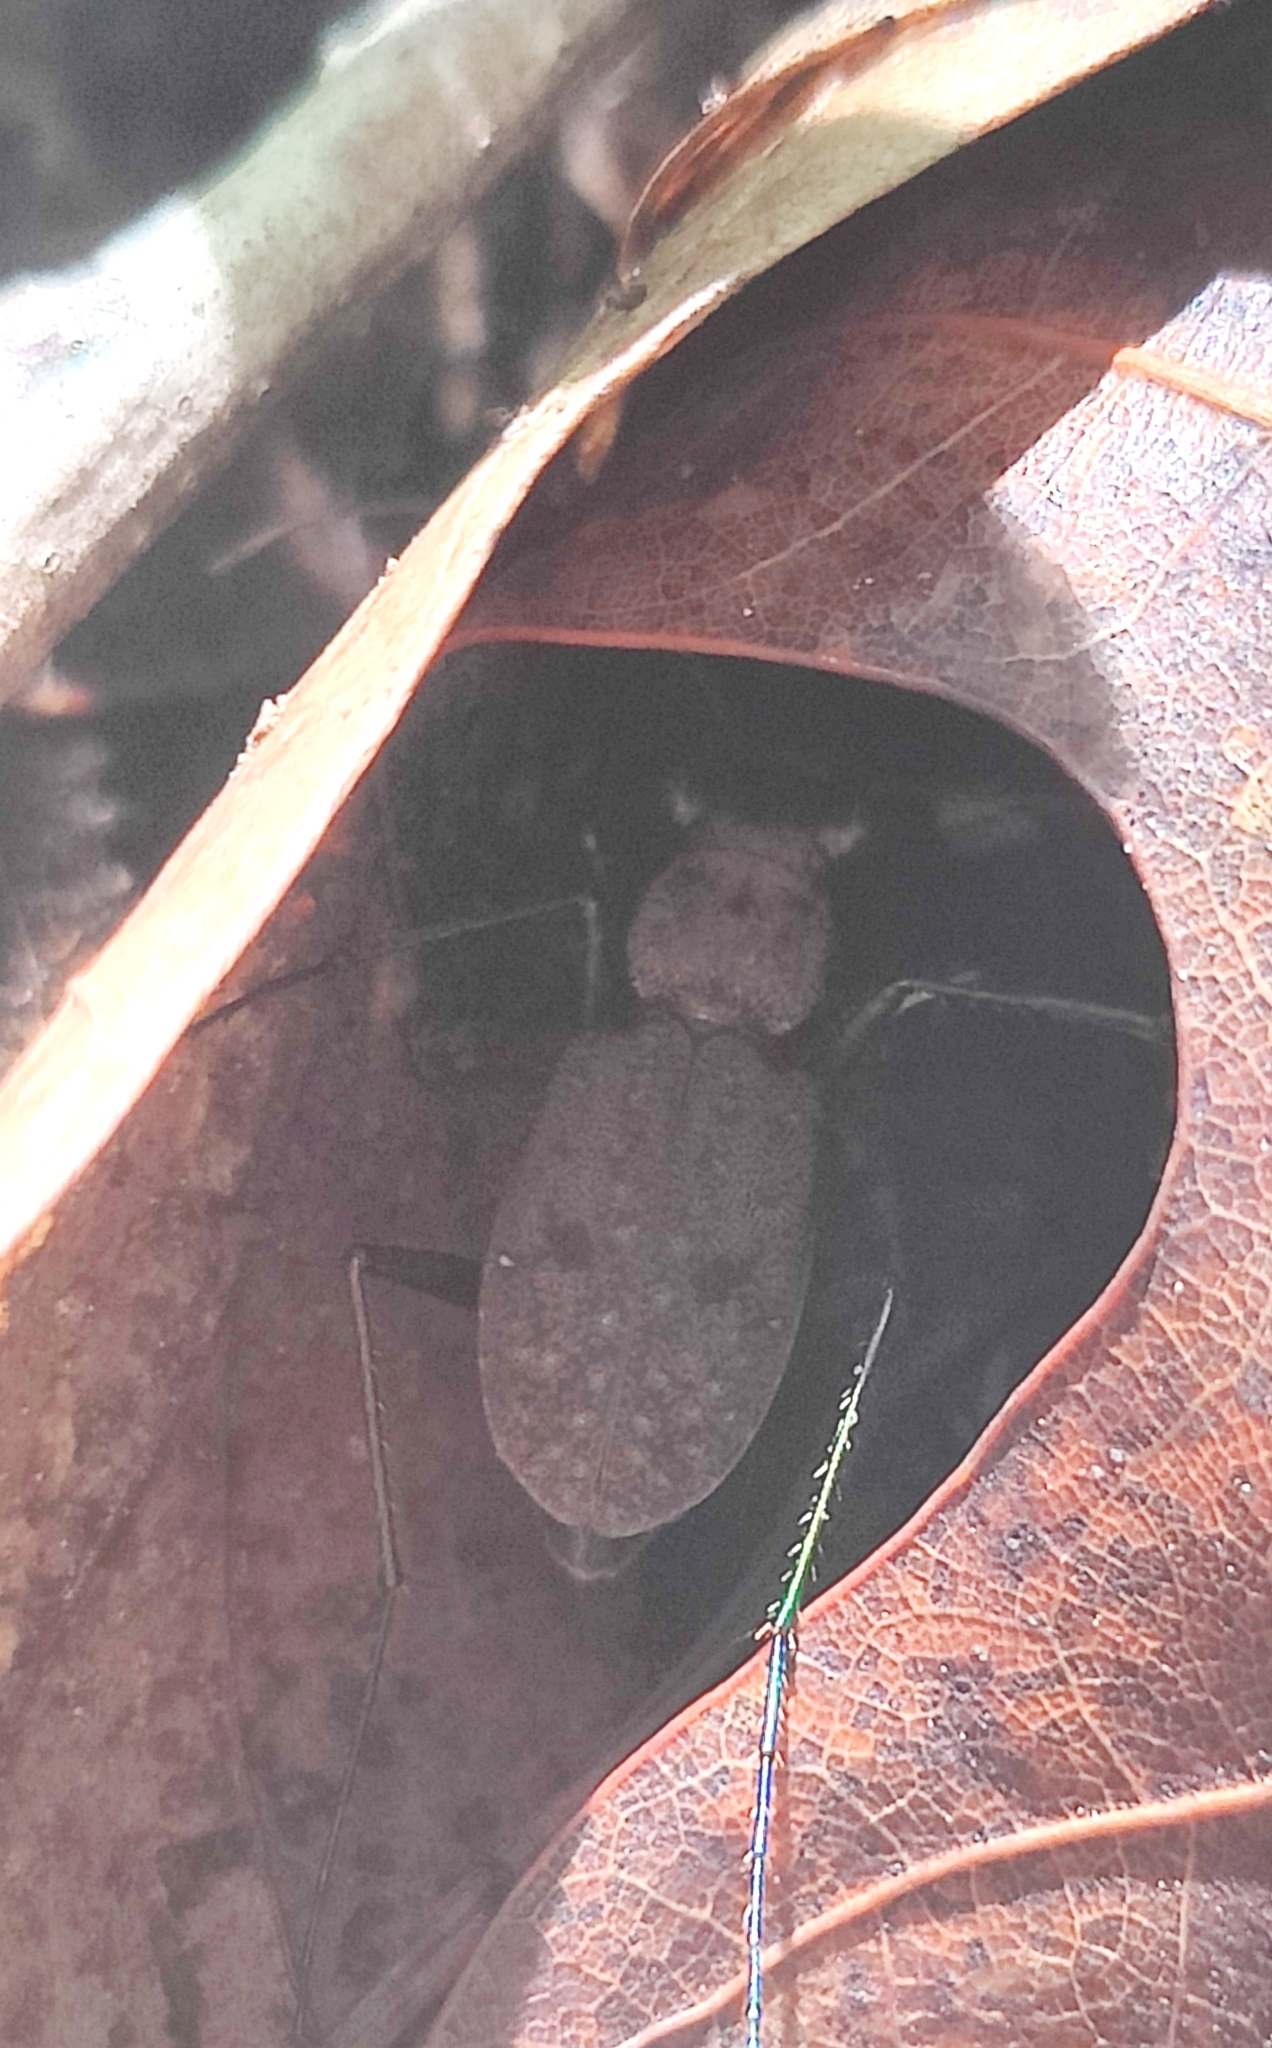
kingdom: Animalia
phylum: Arthropoda
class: Insecta
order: Coleoptera
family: Carabidae
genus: Cylindera
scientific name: Cylindera unipunctata
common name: One-spotted tiger beetle
